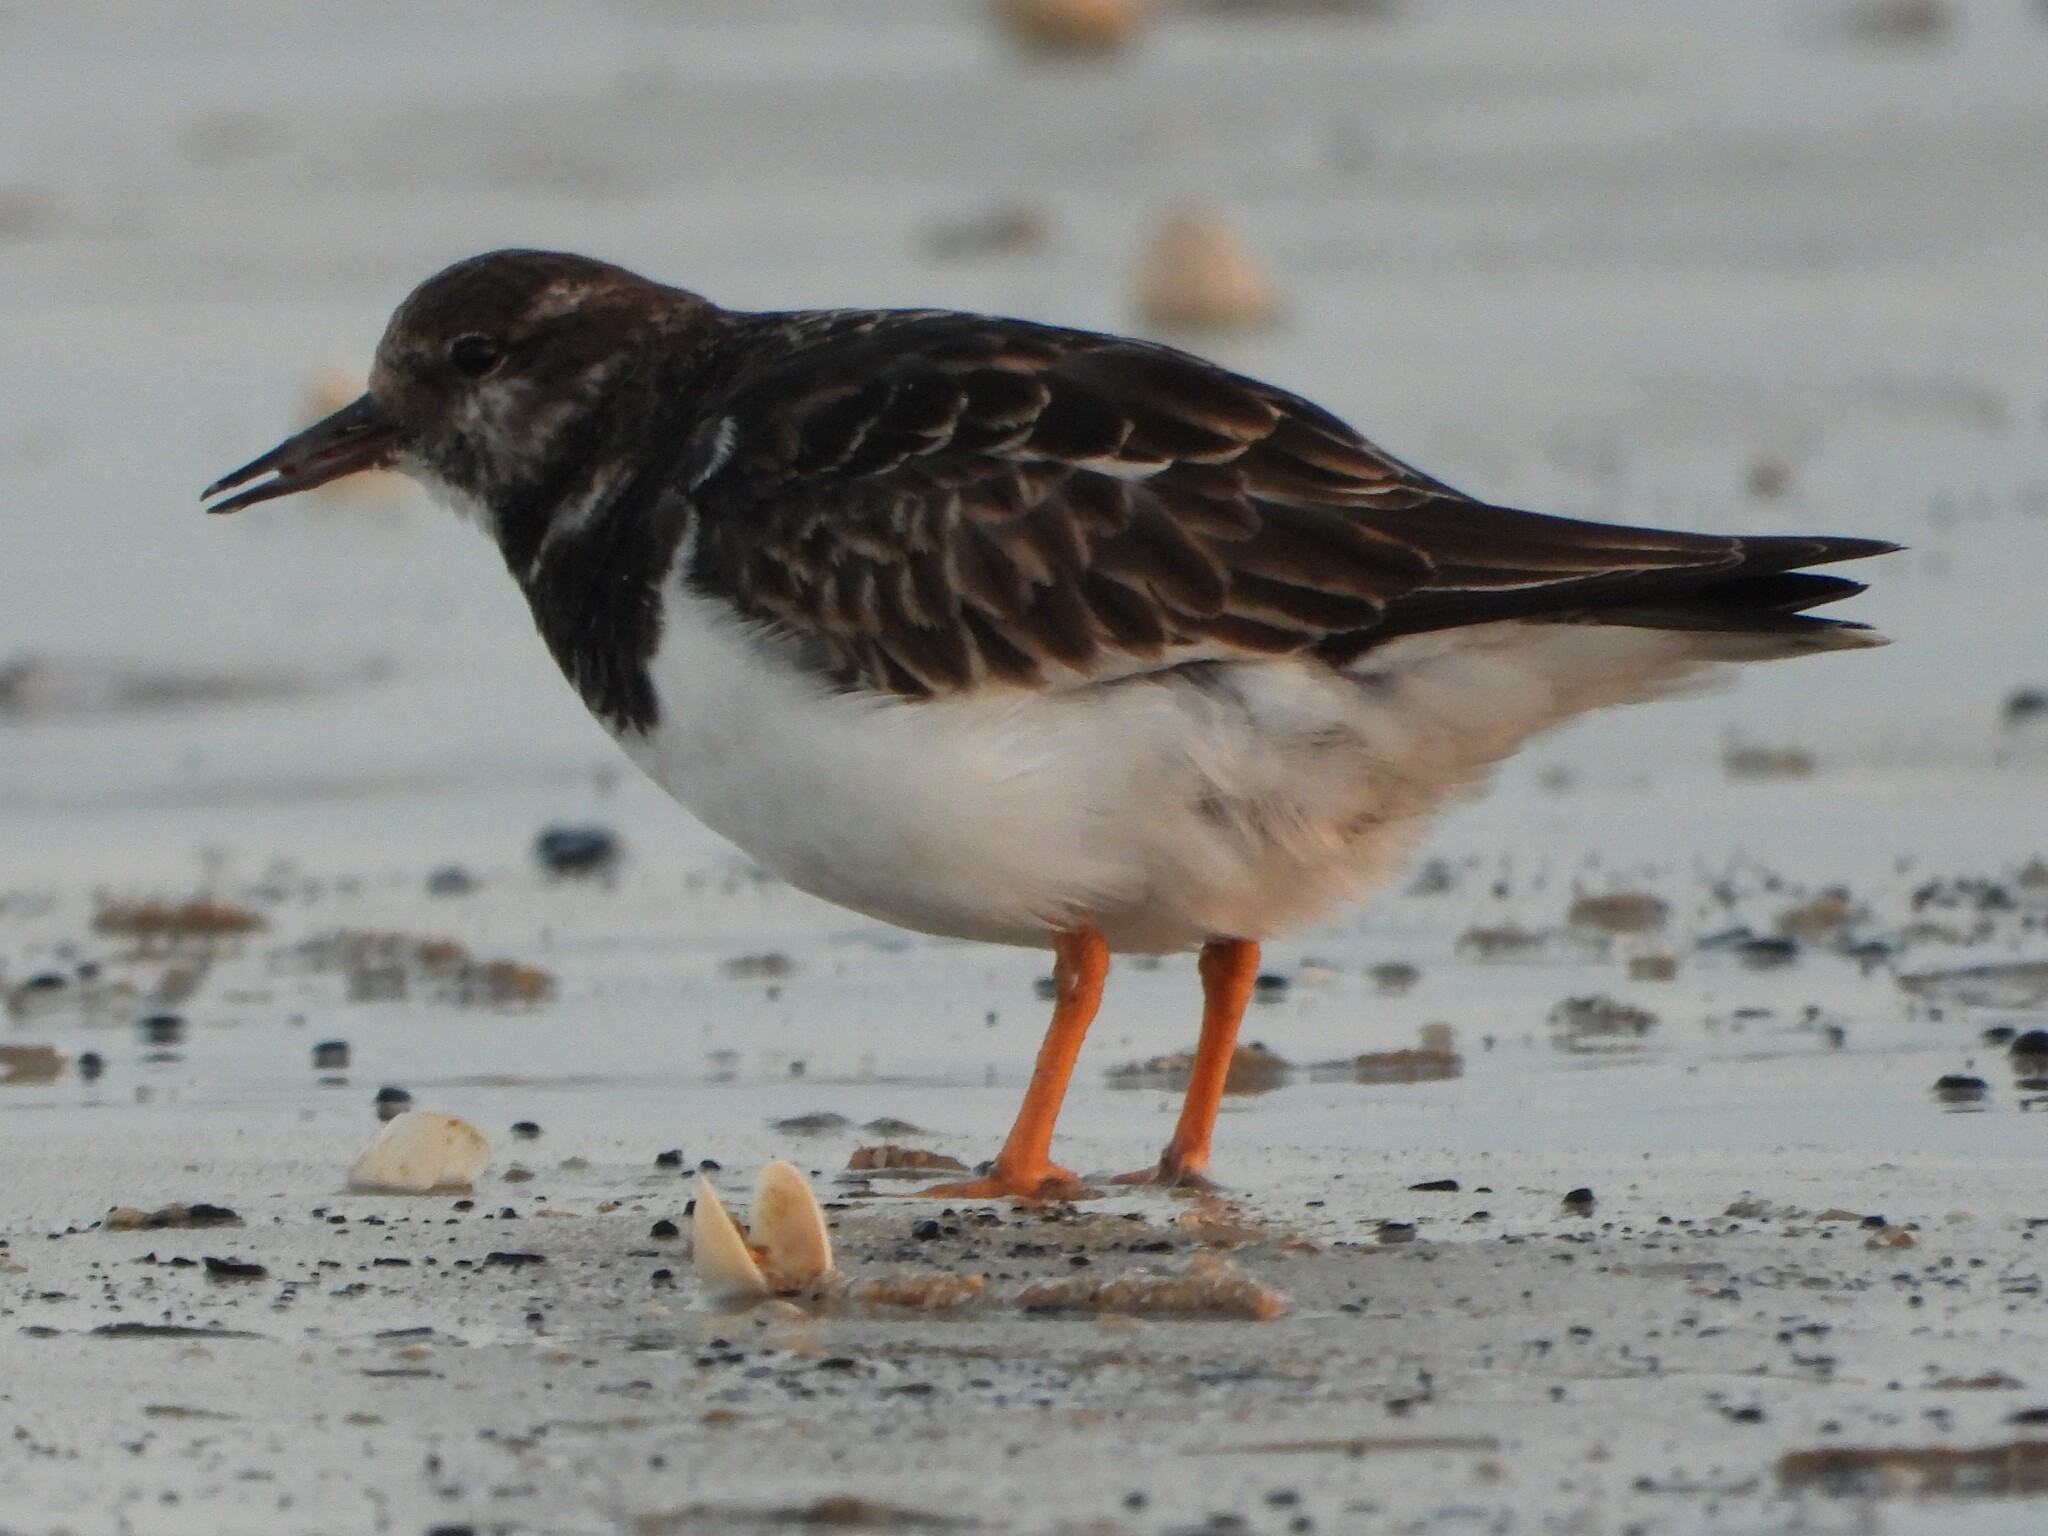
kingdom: Animalia
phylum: Chordata
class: Aves
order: Charadriiformes
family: Scolopacidae
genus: Arenaria
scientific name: Arenaria interpres
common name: Ruddy turnstone
